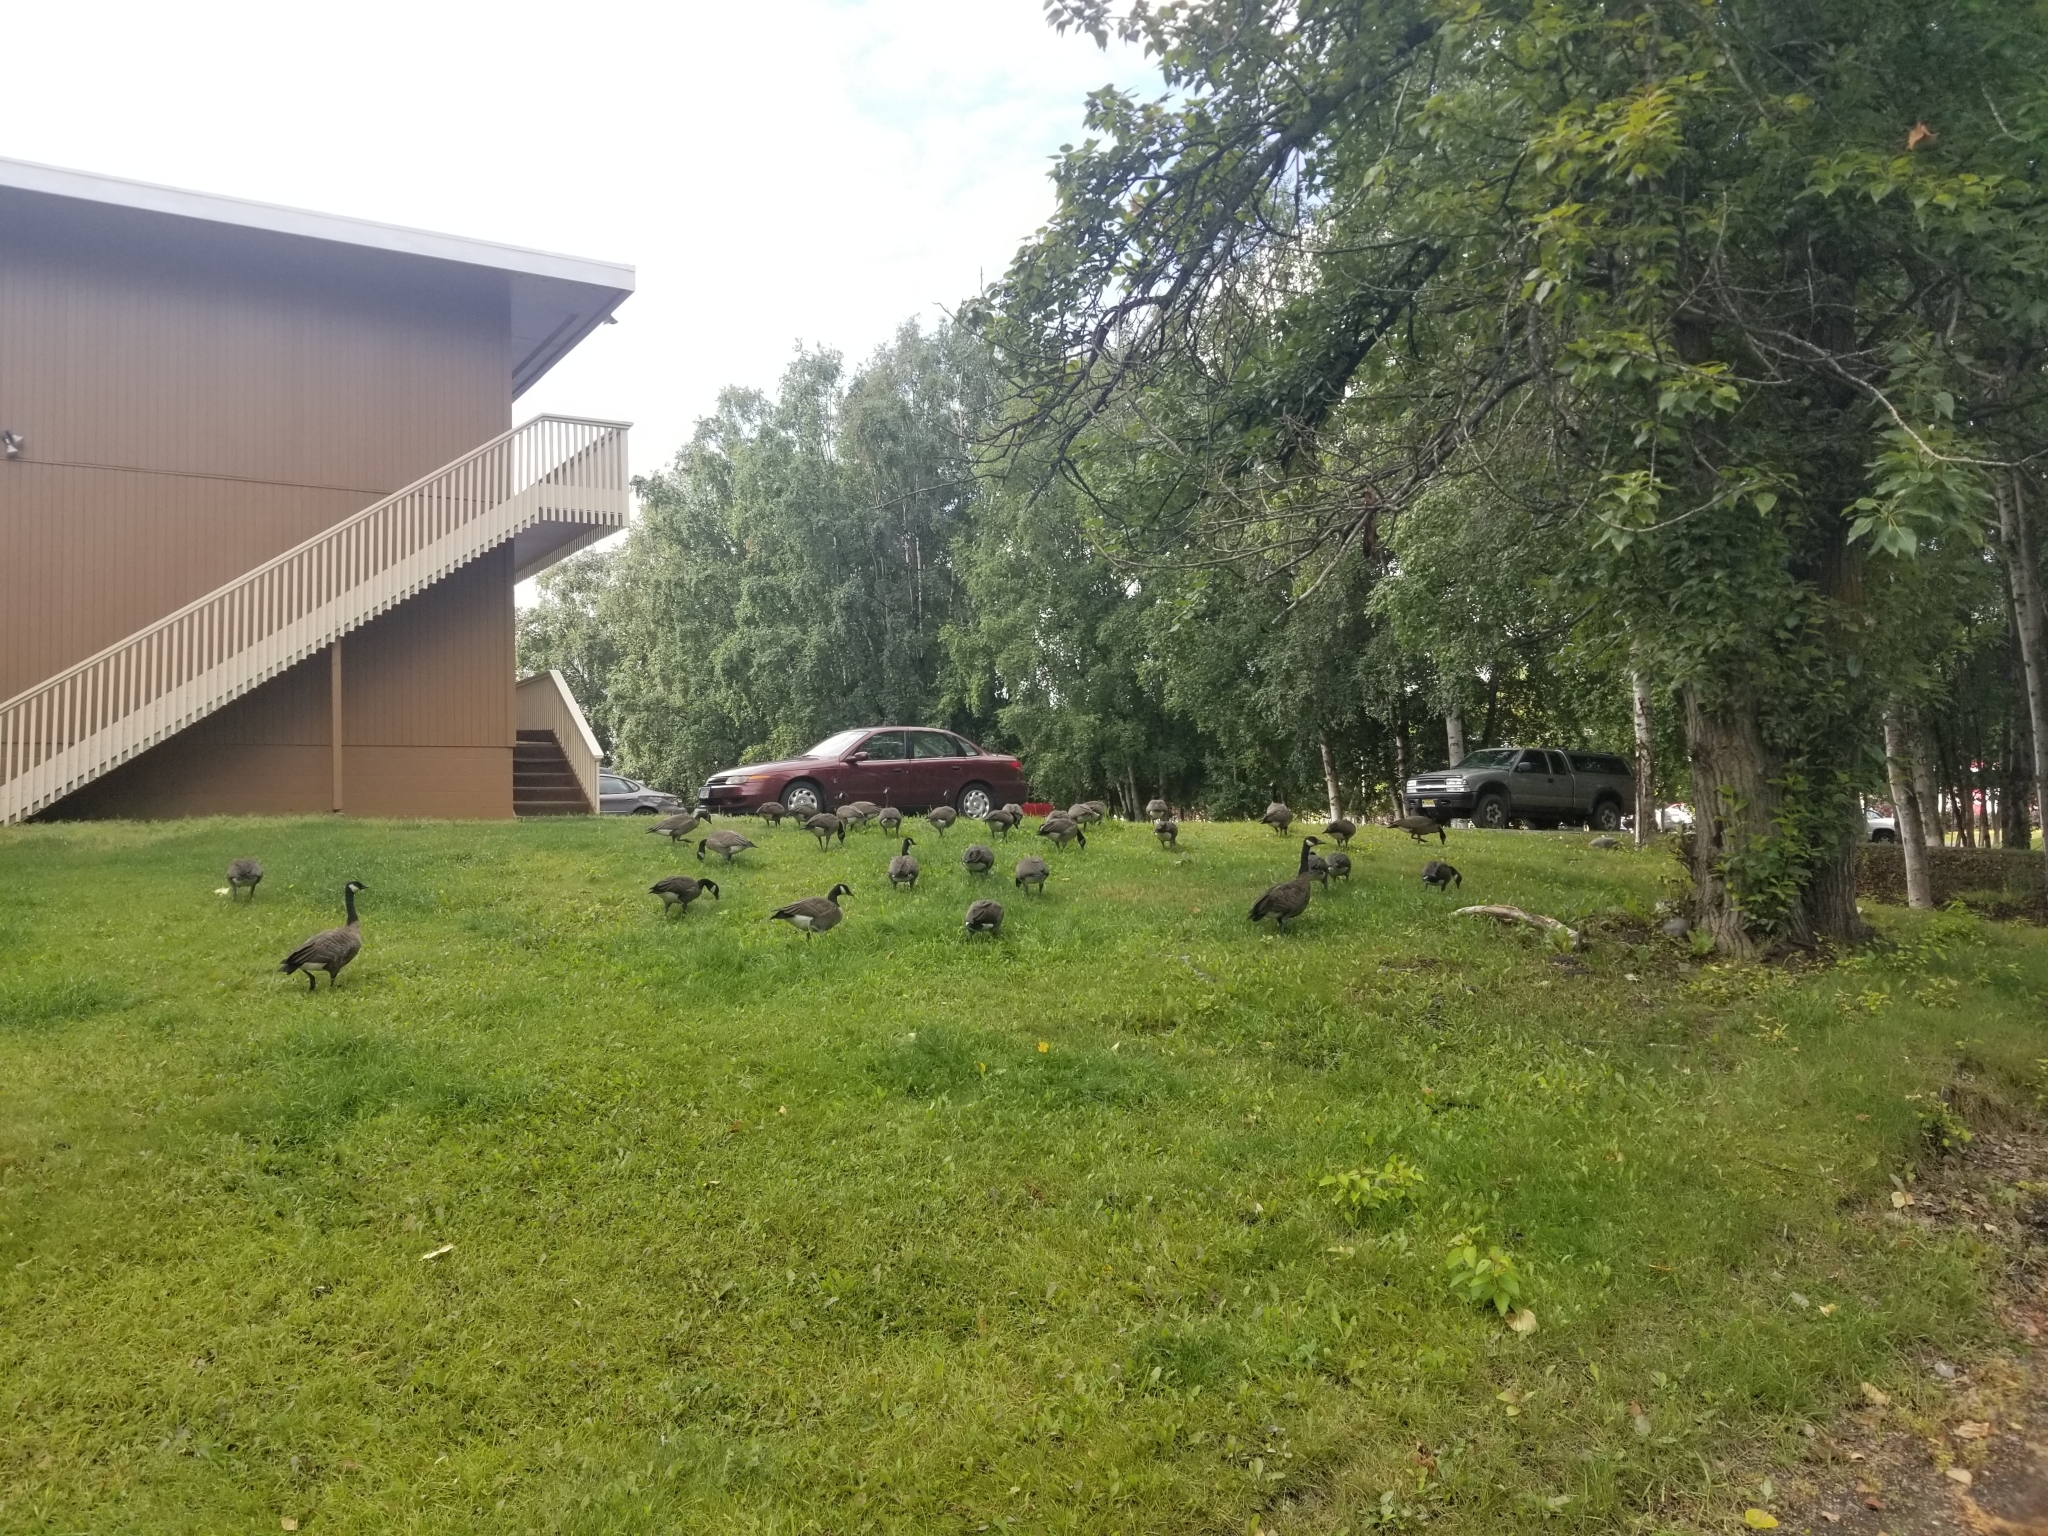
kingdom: Animalia
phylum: Chordata
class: Aves
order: Anseriformes
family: Anatidae
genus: Branta
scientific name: Branta canadensis
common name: Canada goose
